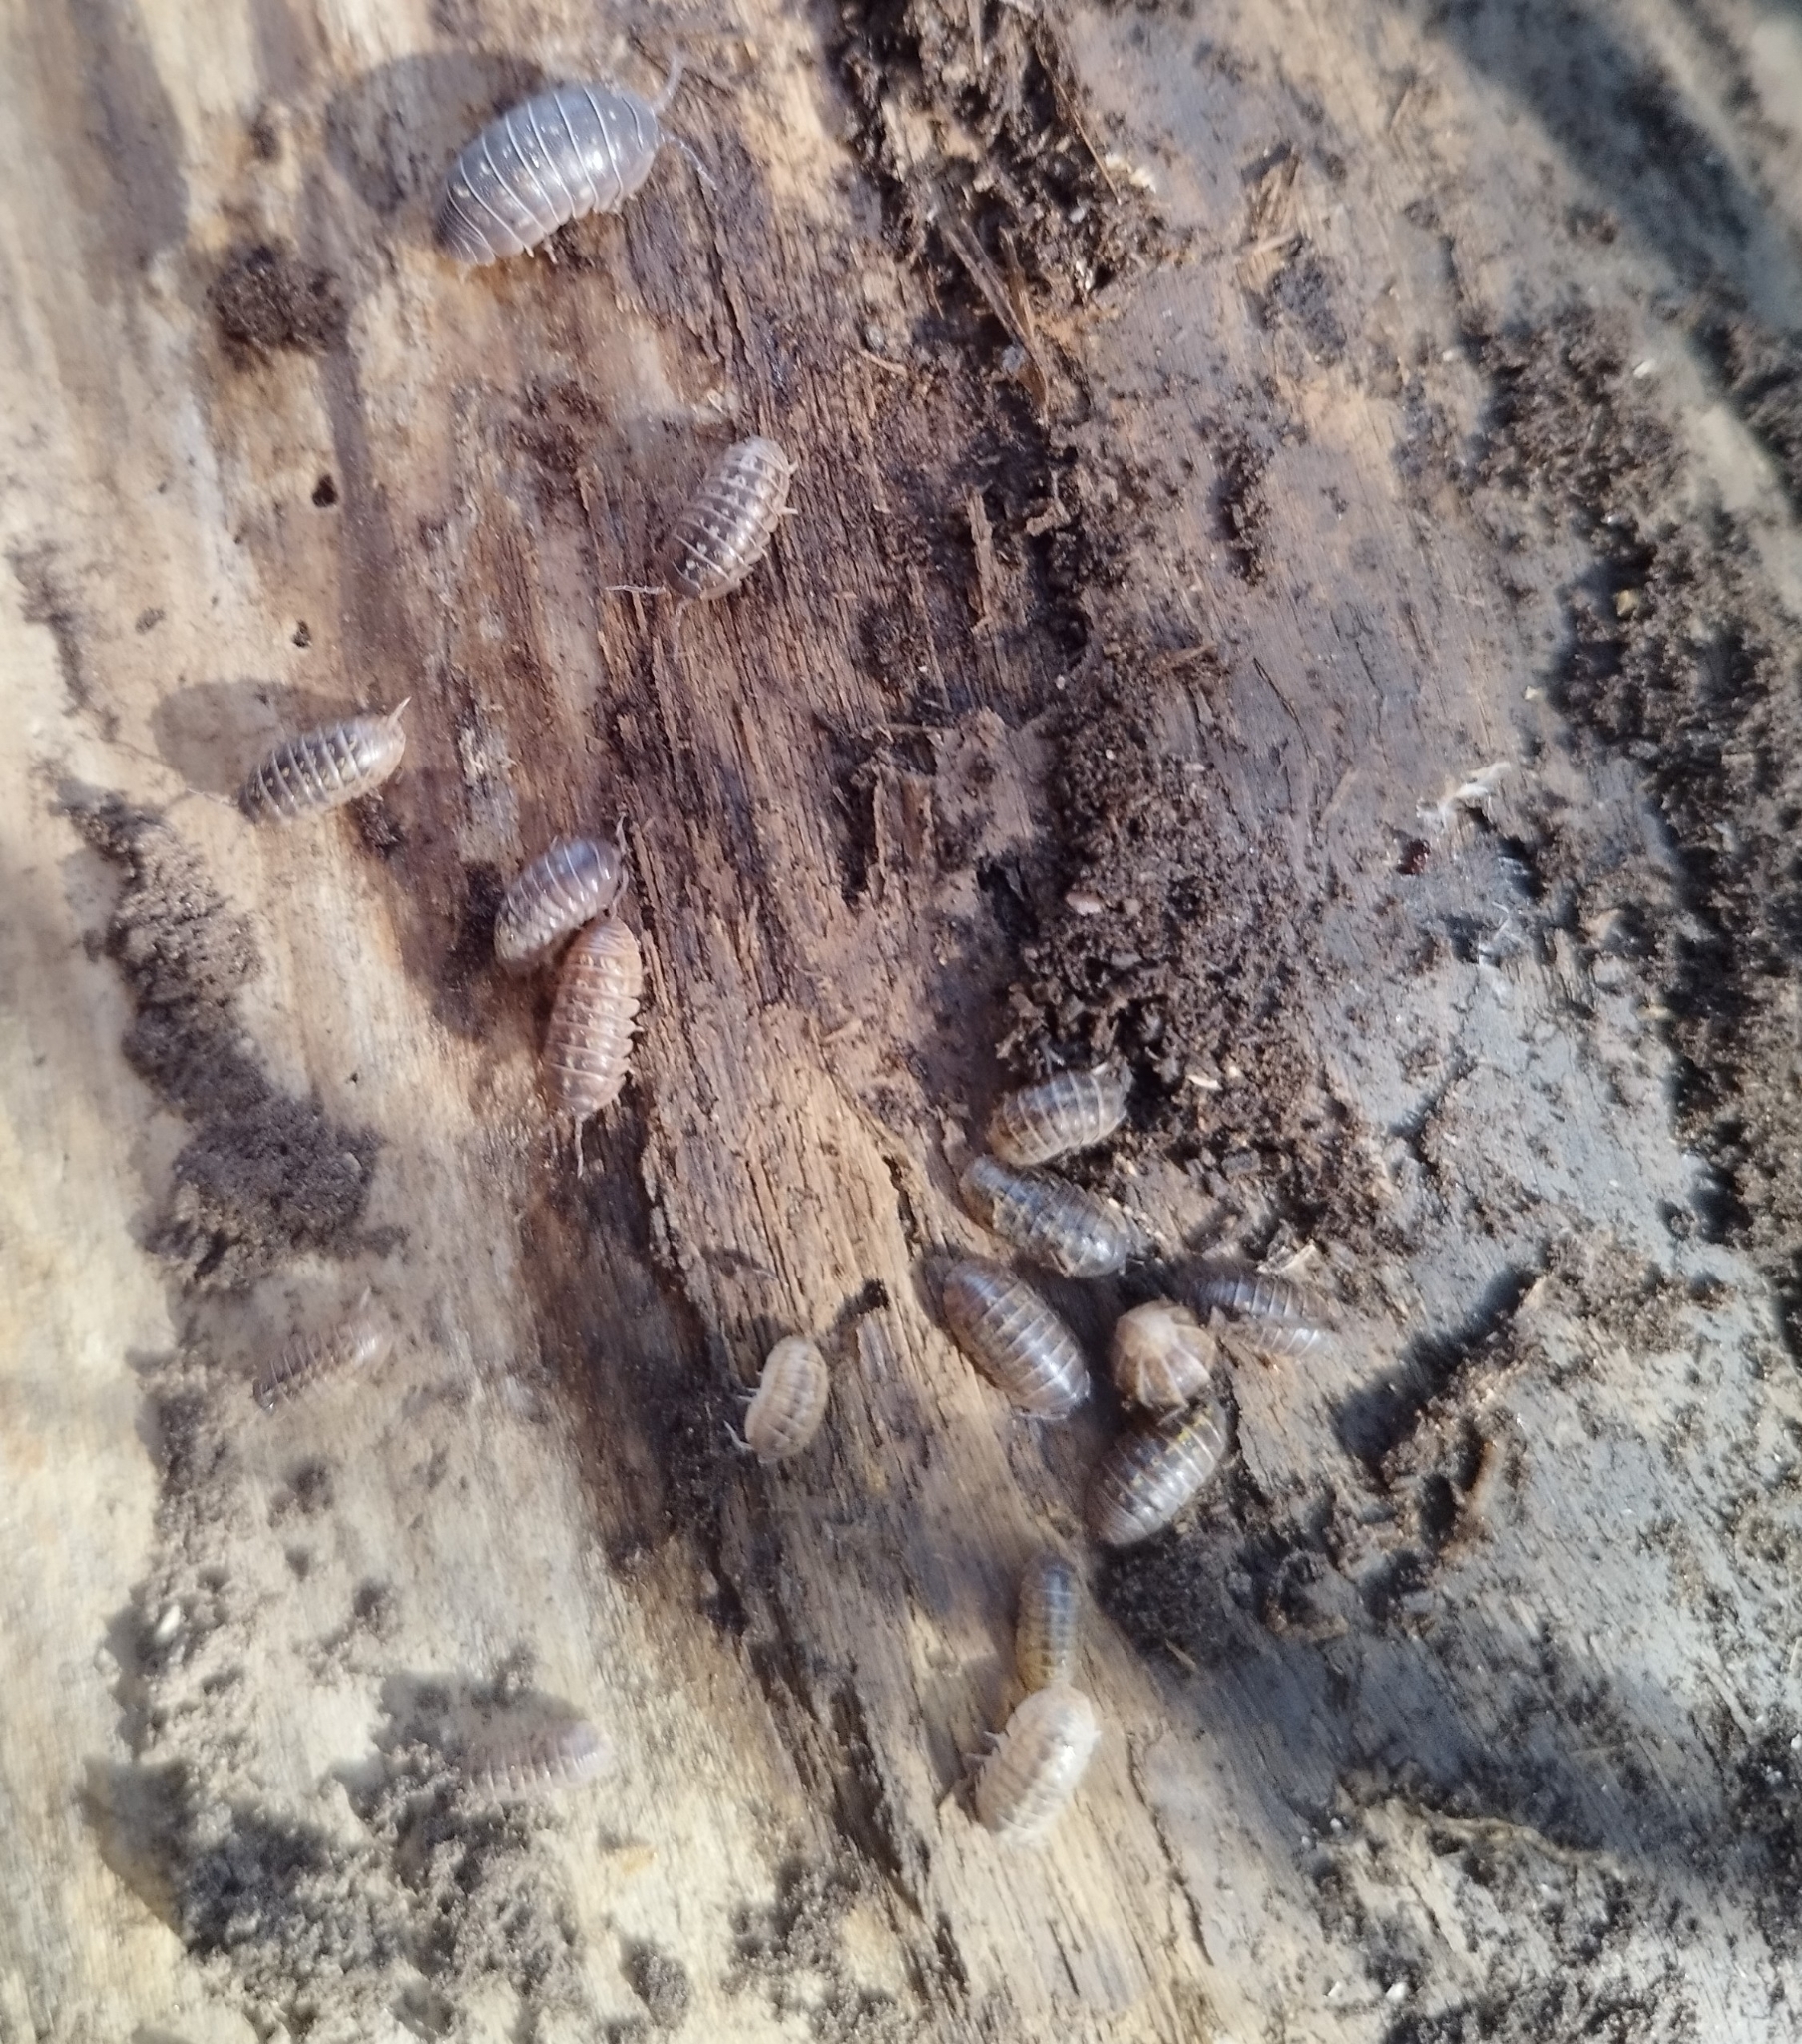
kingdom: Animalia
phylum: Arthropoda
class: Malacostraca
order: Isopoda
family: Armadillidiidae
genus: Armadillidium
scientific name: Armadillidium vulgare
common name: Common pill woodlouse
